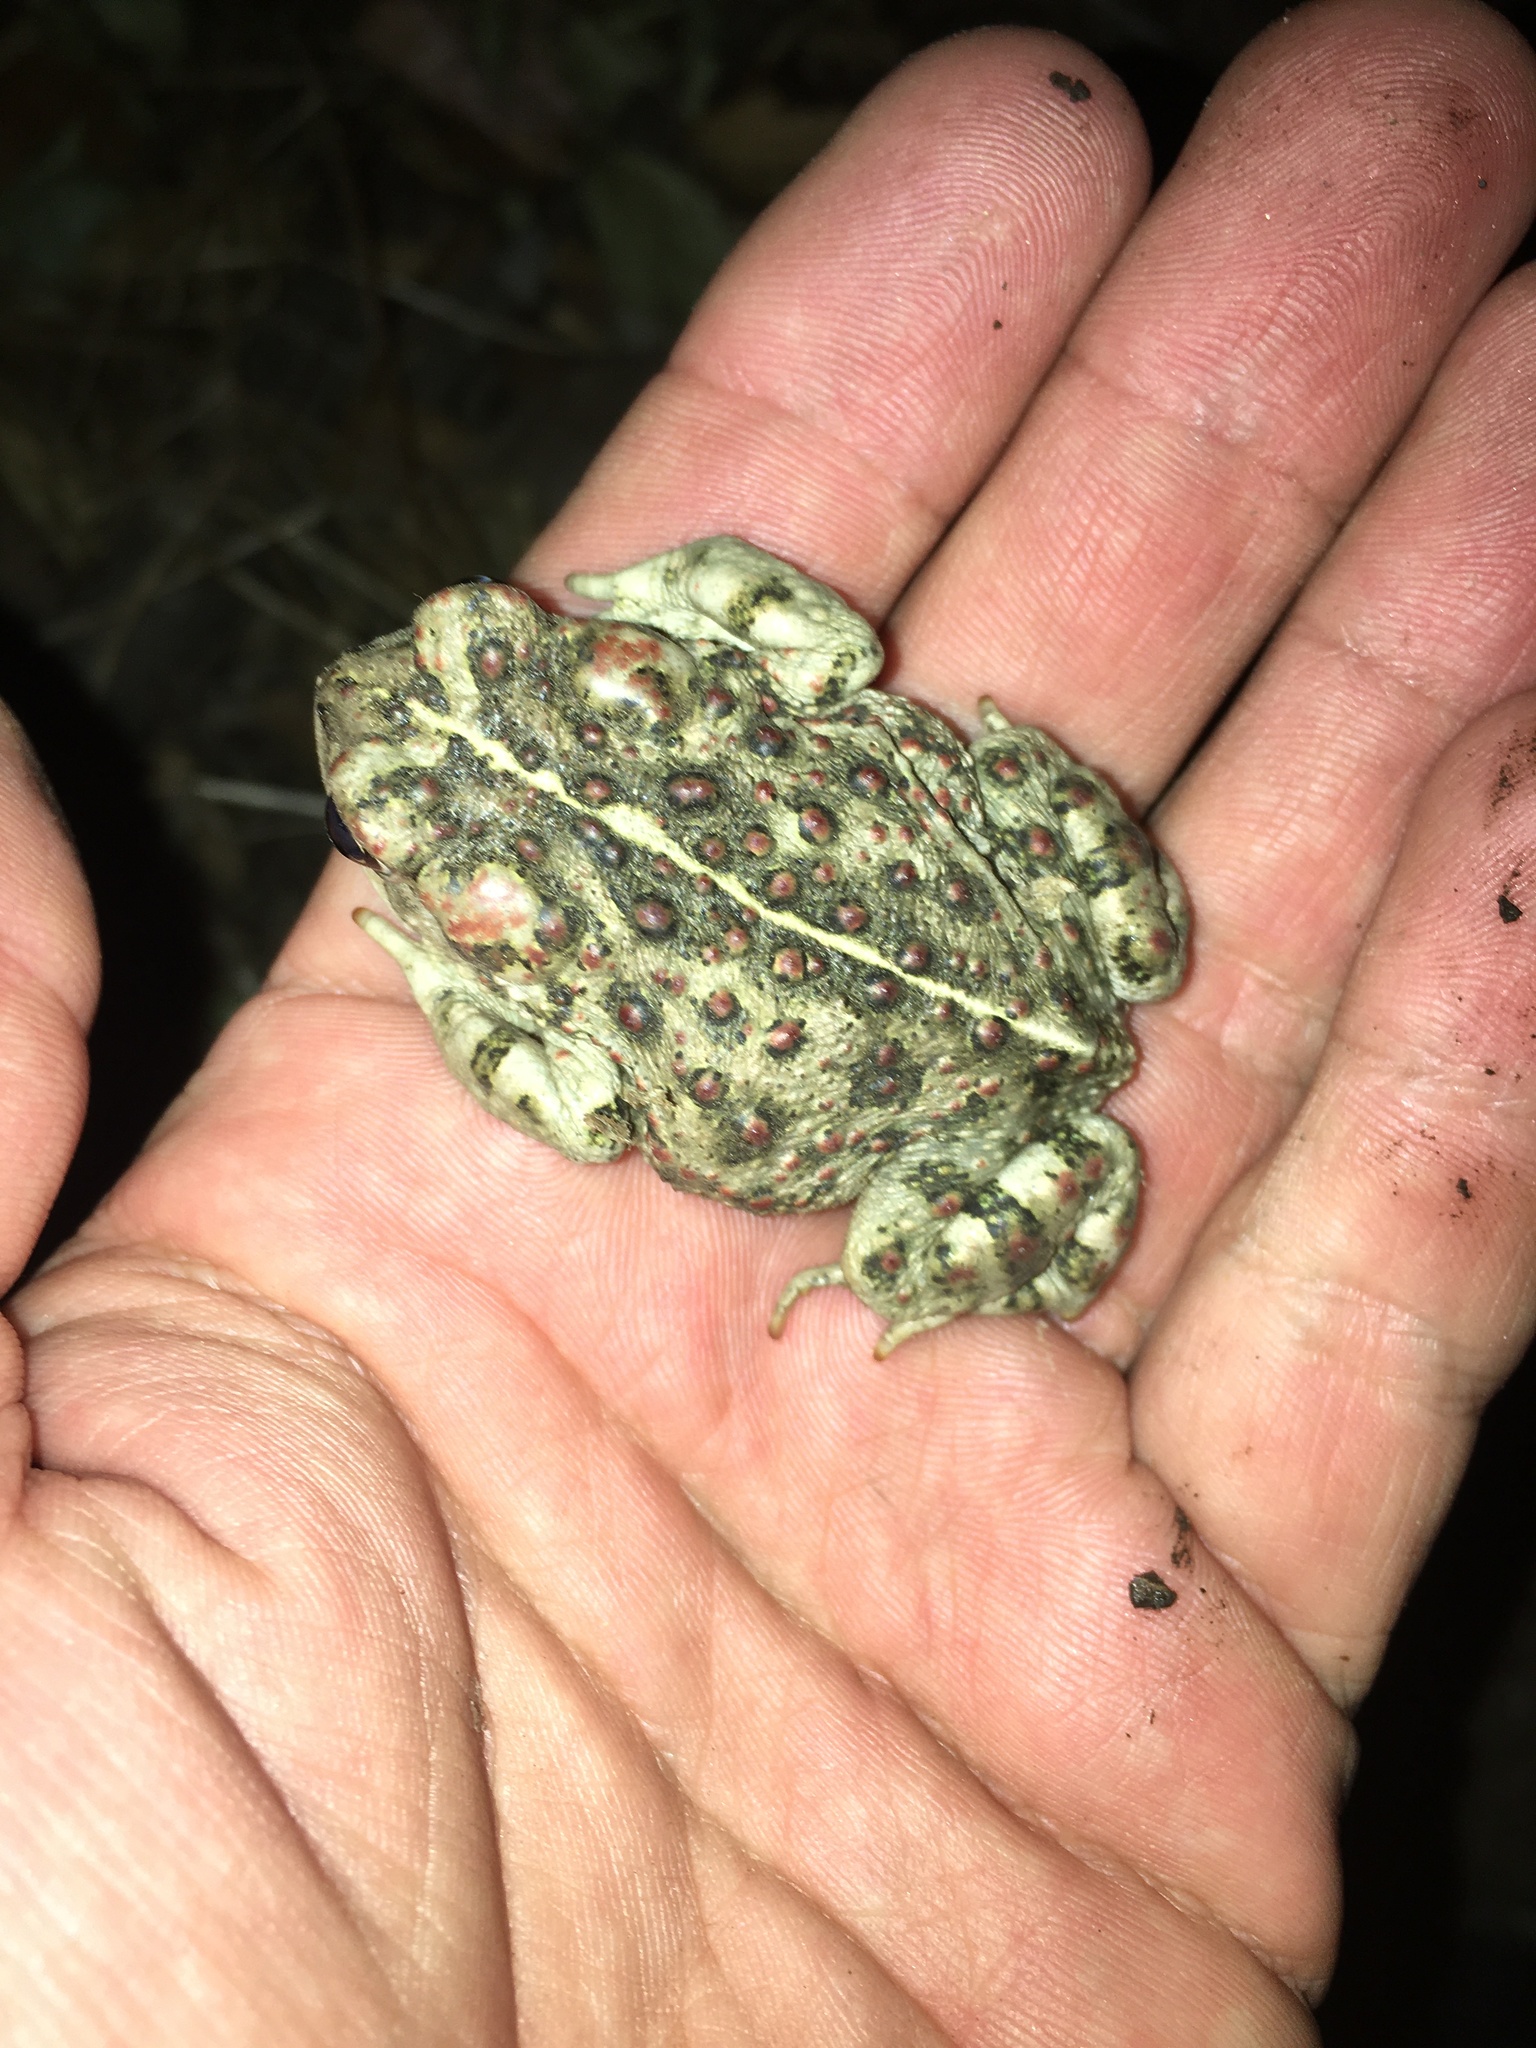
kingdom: Animalia
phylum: Chordata
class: Amphibia
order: Anura
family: Bufonidae
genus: Anaxyrus
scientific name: Anaxyrus boreas
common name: Western toad
